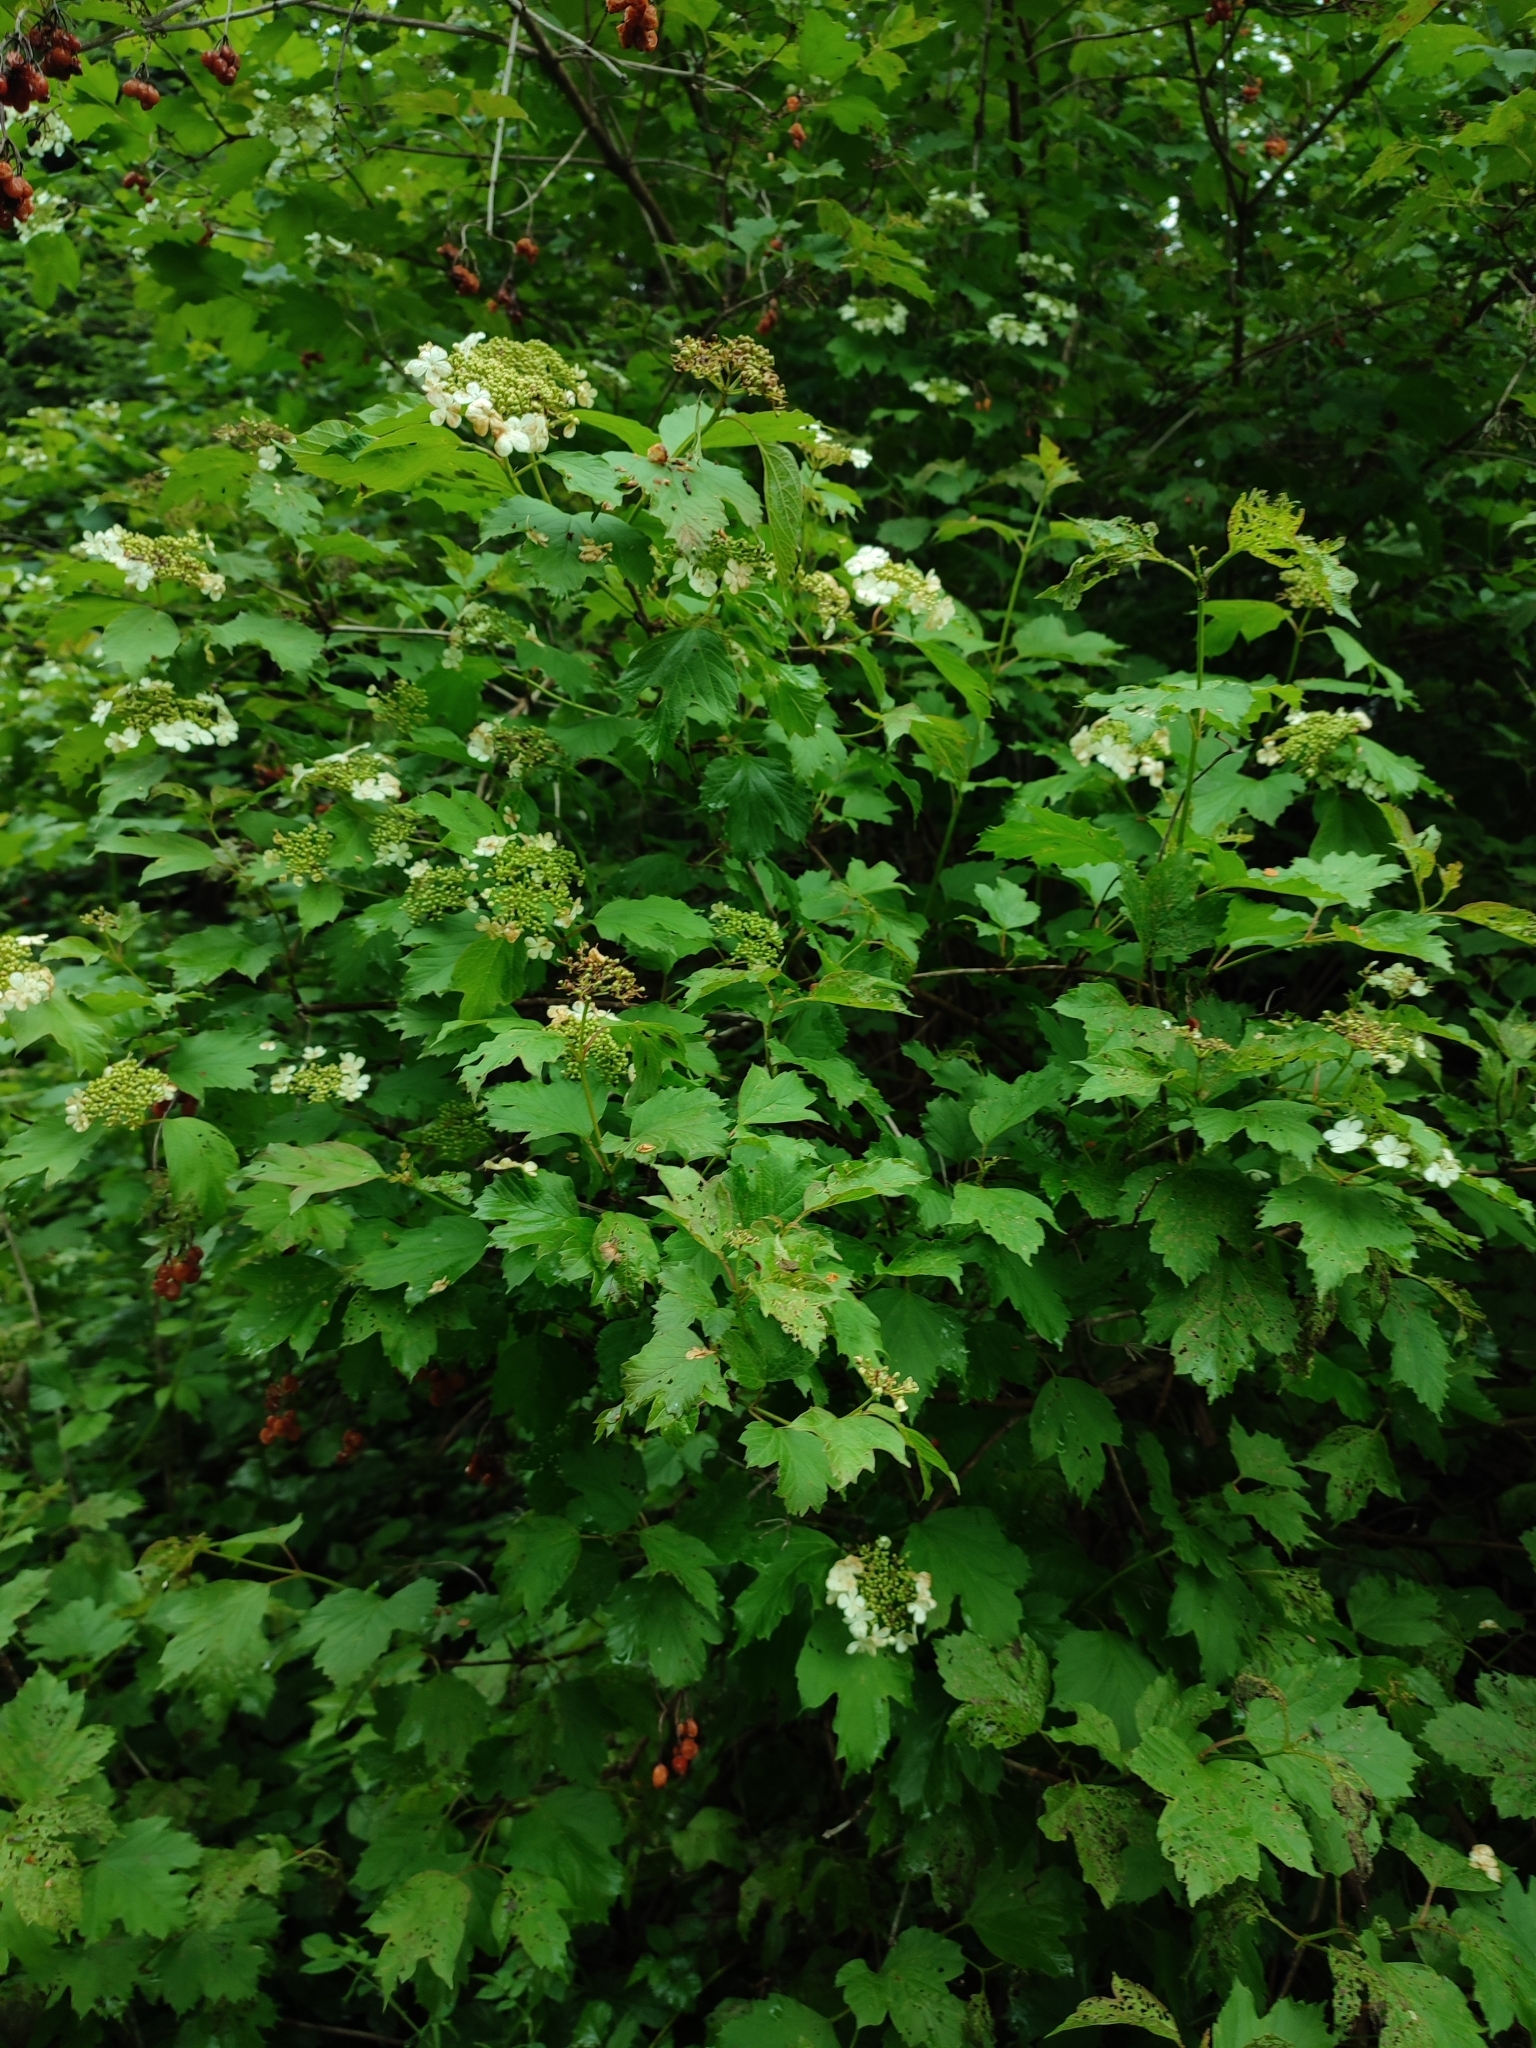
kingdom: Plantae
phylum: Tracheophyta
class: Magnoliopsida
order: Dipsacales
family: Viburnaceae
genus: Viburnum
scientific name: Viburnum opulus
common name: Guelder-rose
